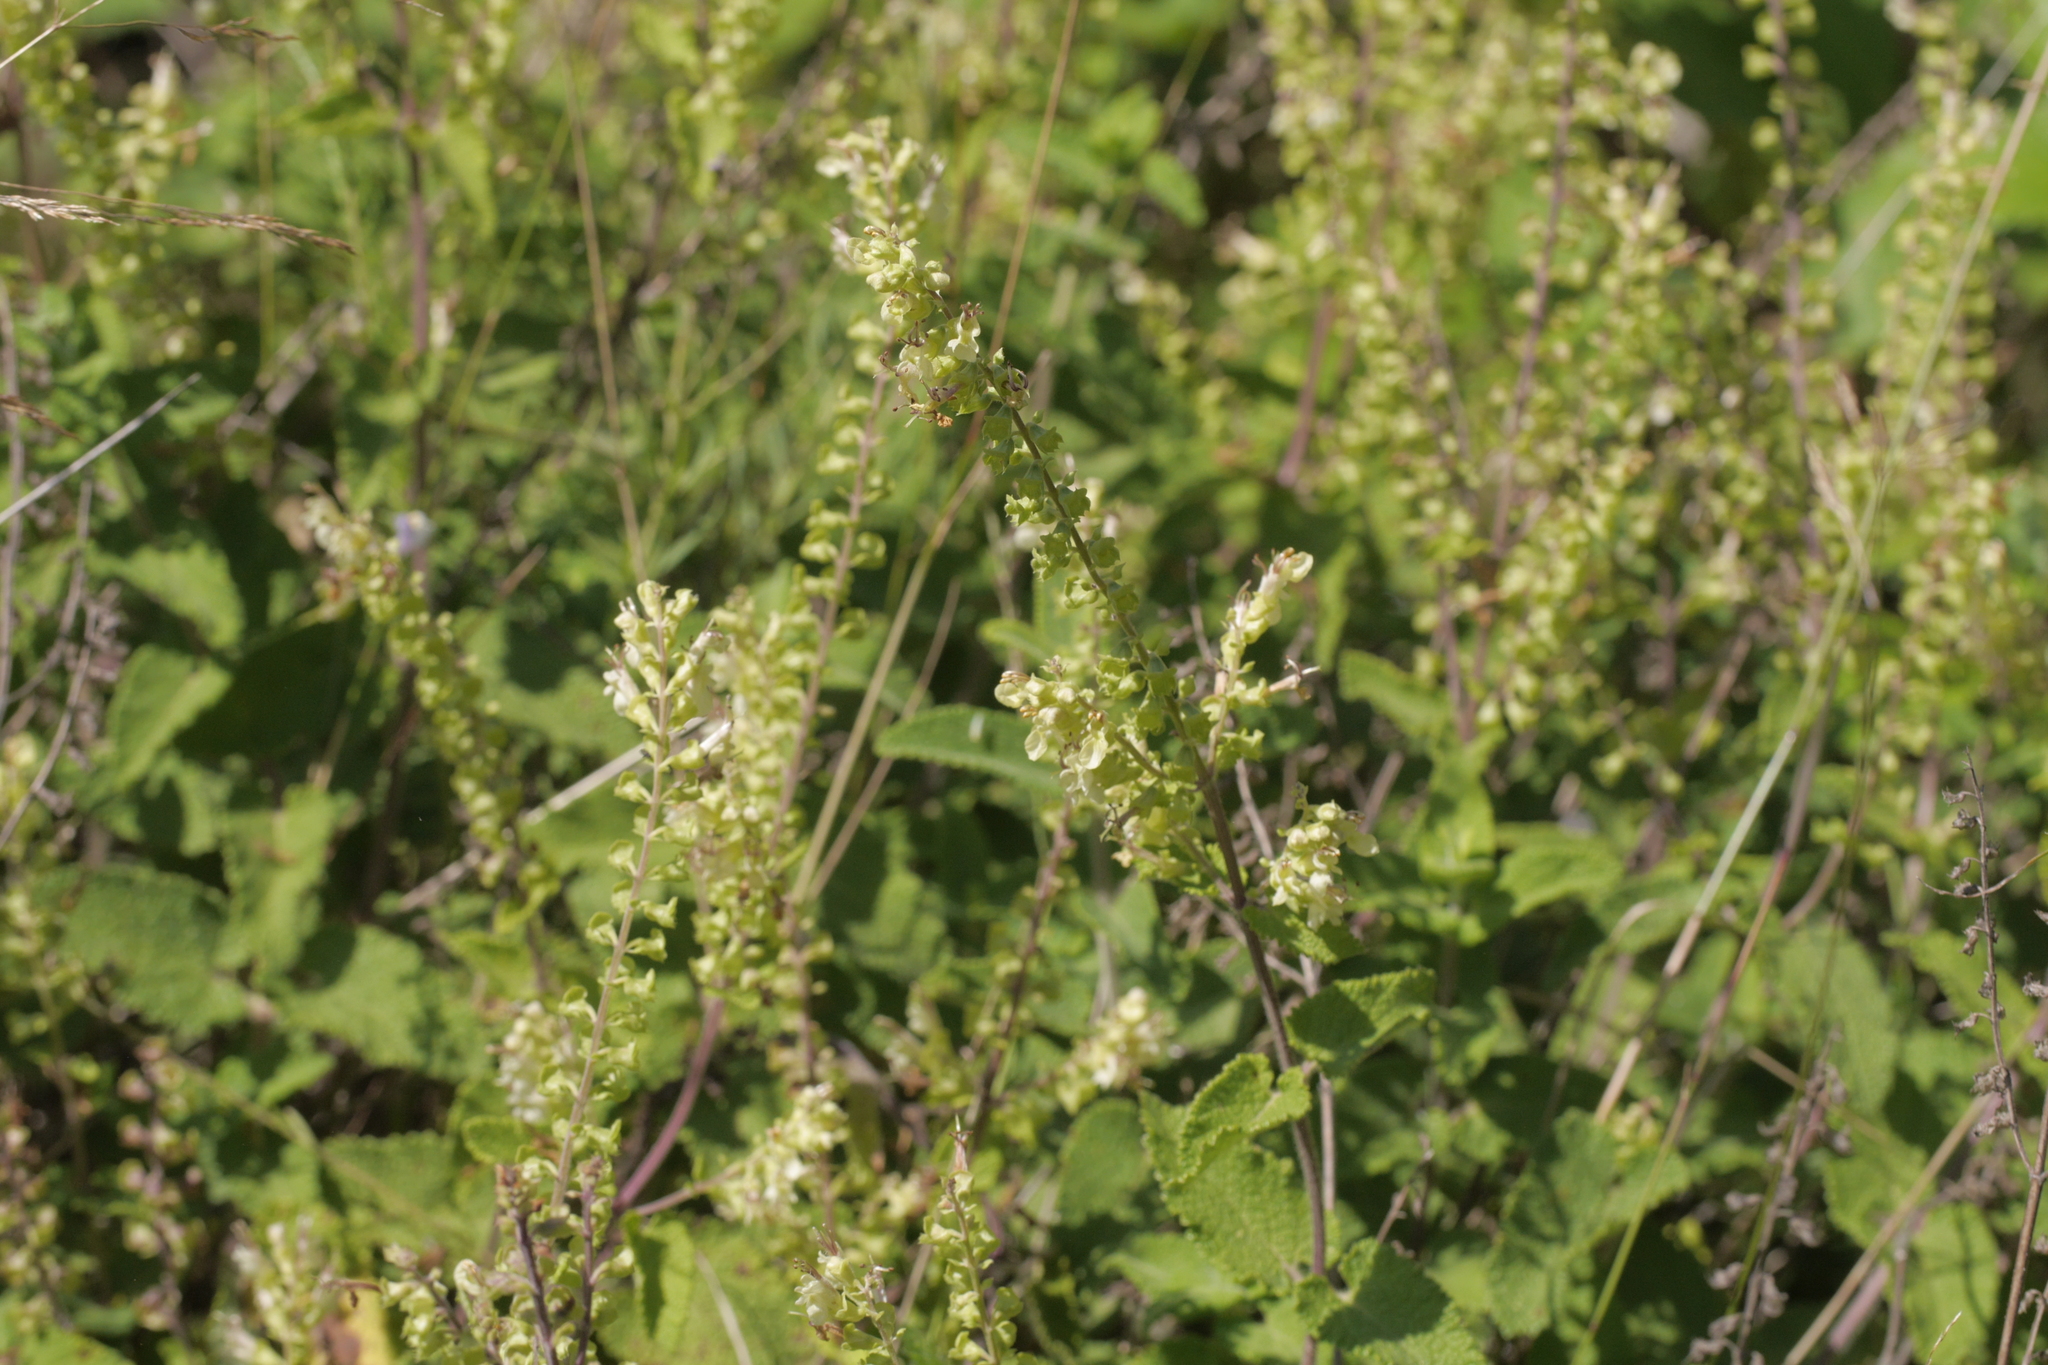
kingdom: Plantae
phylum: Tracheophyta
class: Magnoliopsida
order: Lamiales
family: Lamiaceae
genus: Teucrium
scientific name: Teucrium scorodonia
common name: Woodland germander
